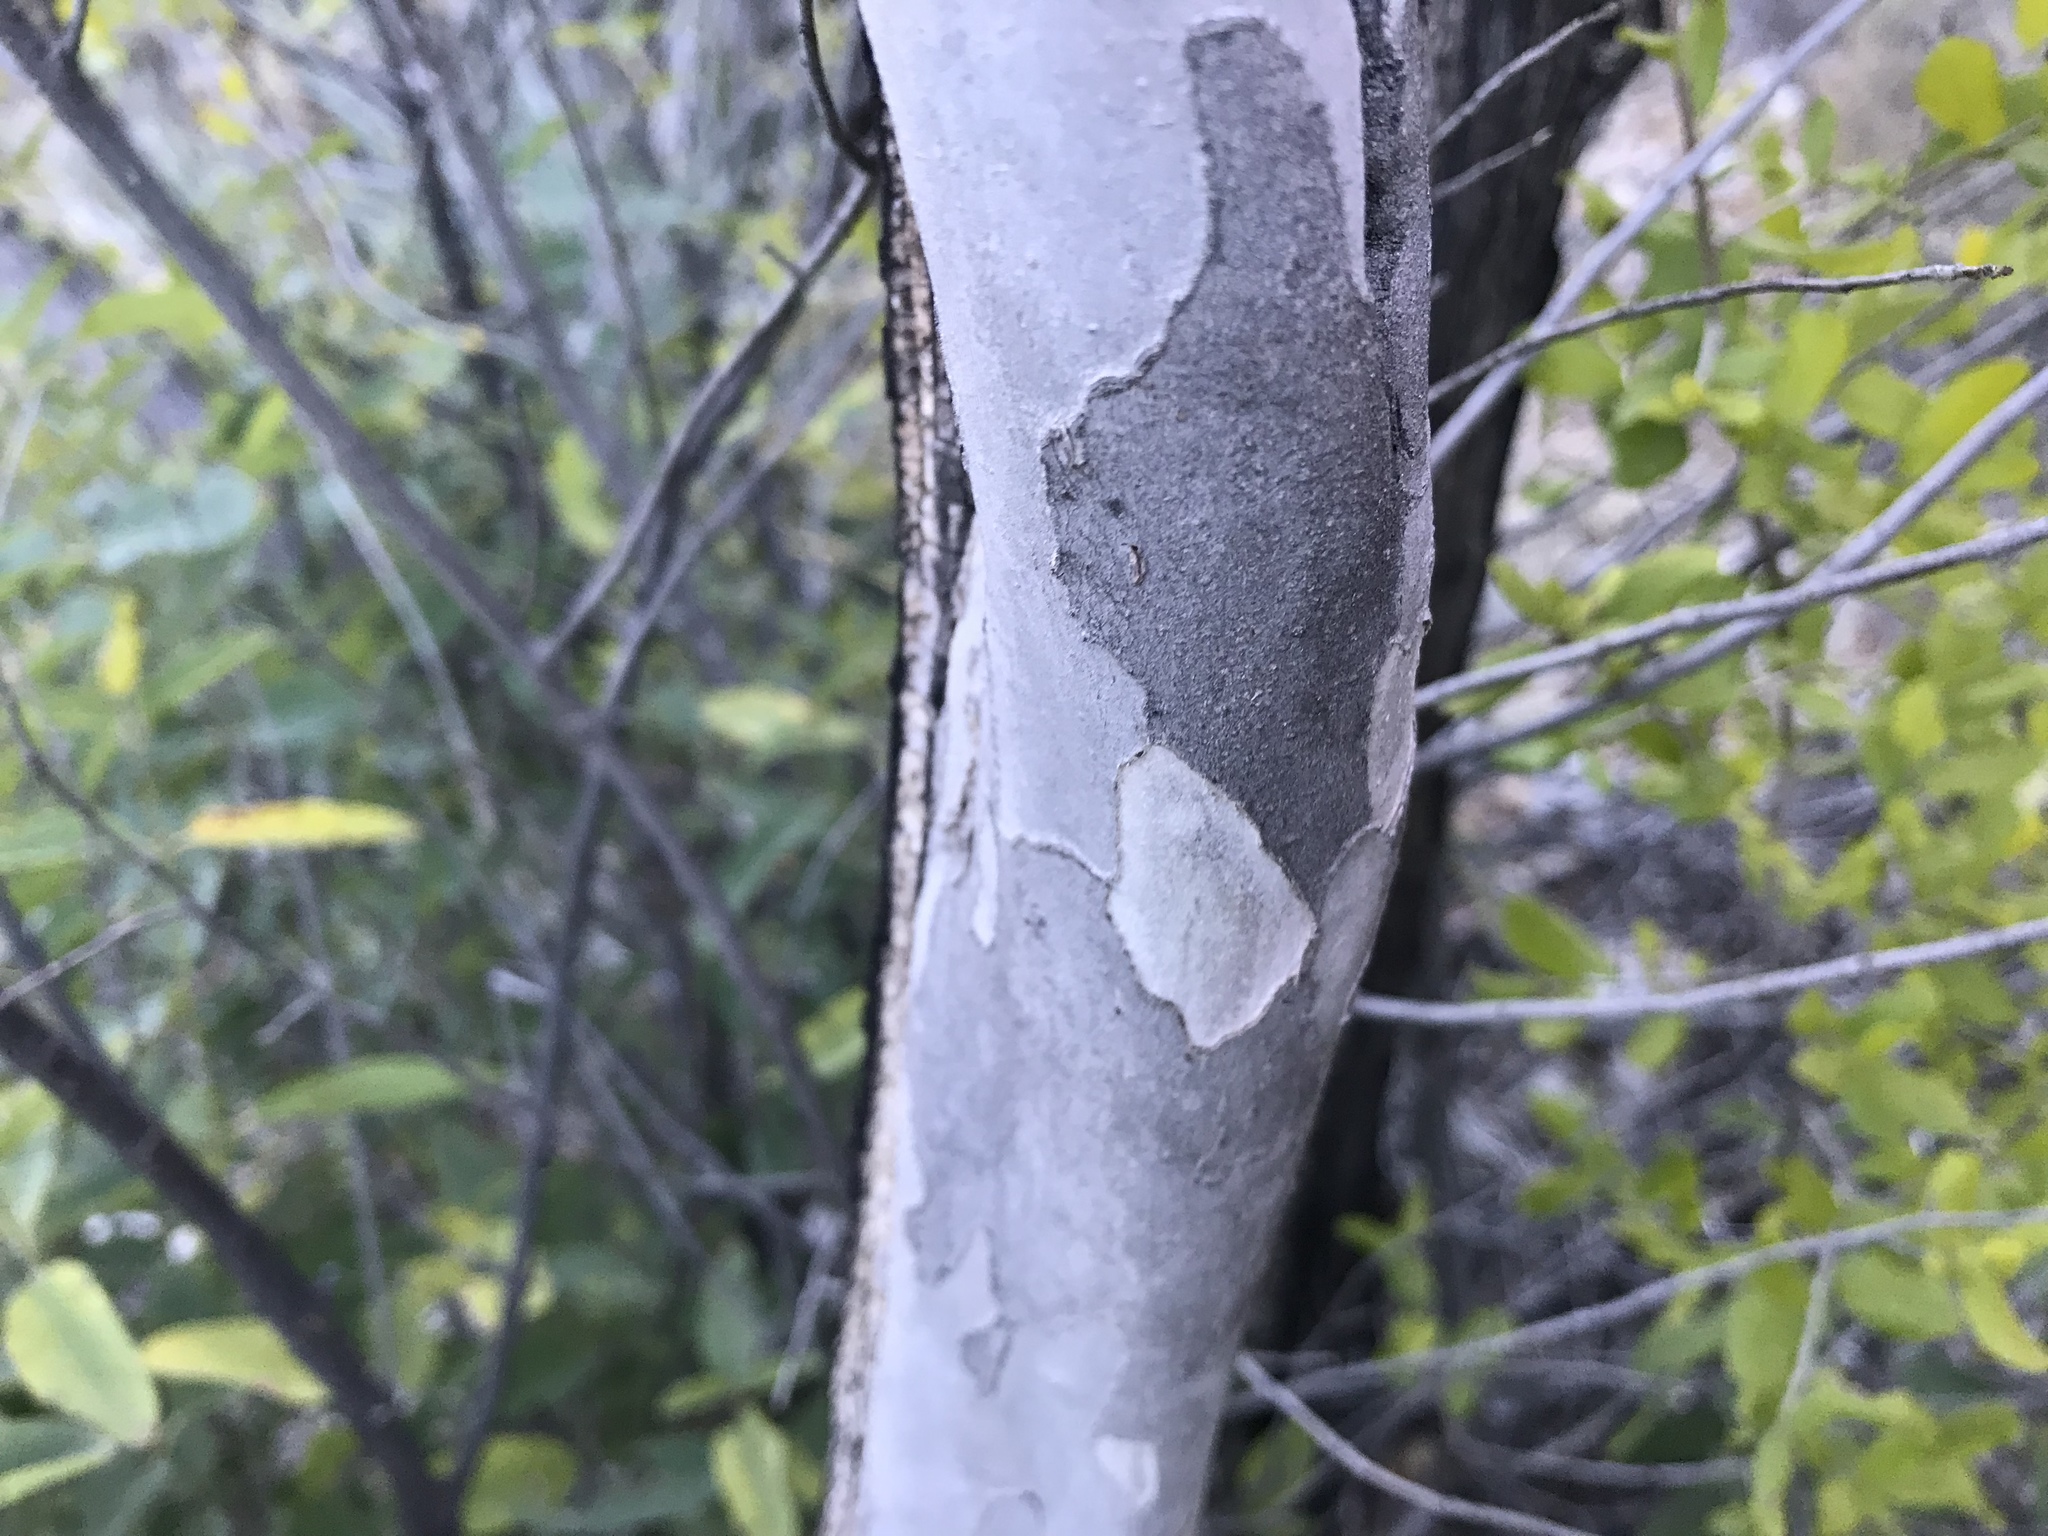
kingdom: Plantae
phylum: Tracheophyta
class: Magnoliopsida
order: Ericales
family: Ebenaceae
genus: Diospyros
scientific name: Diospyros texana
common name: Texas persimmon
